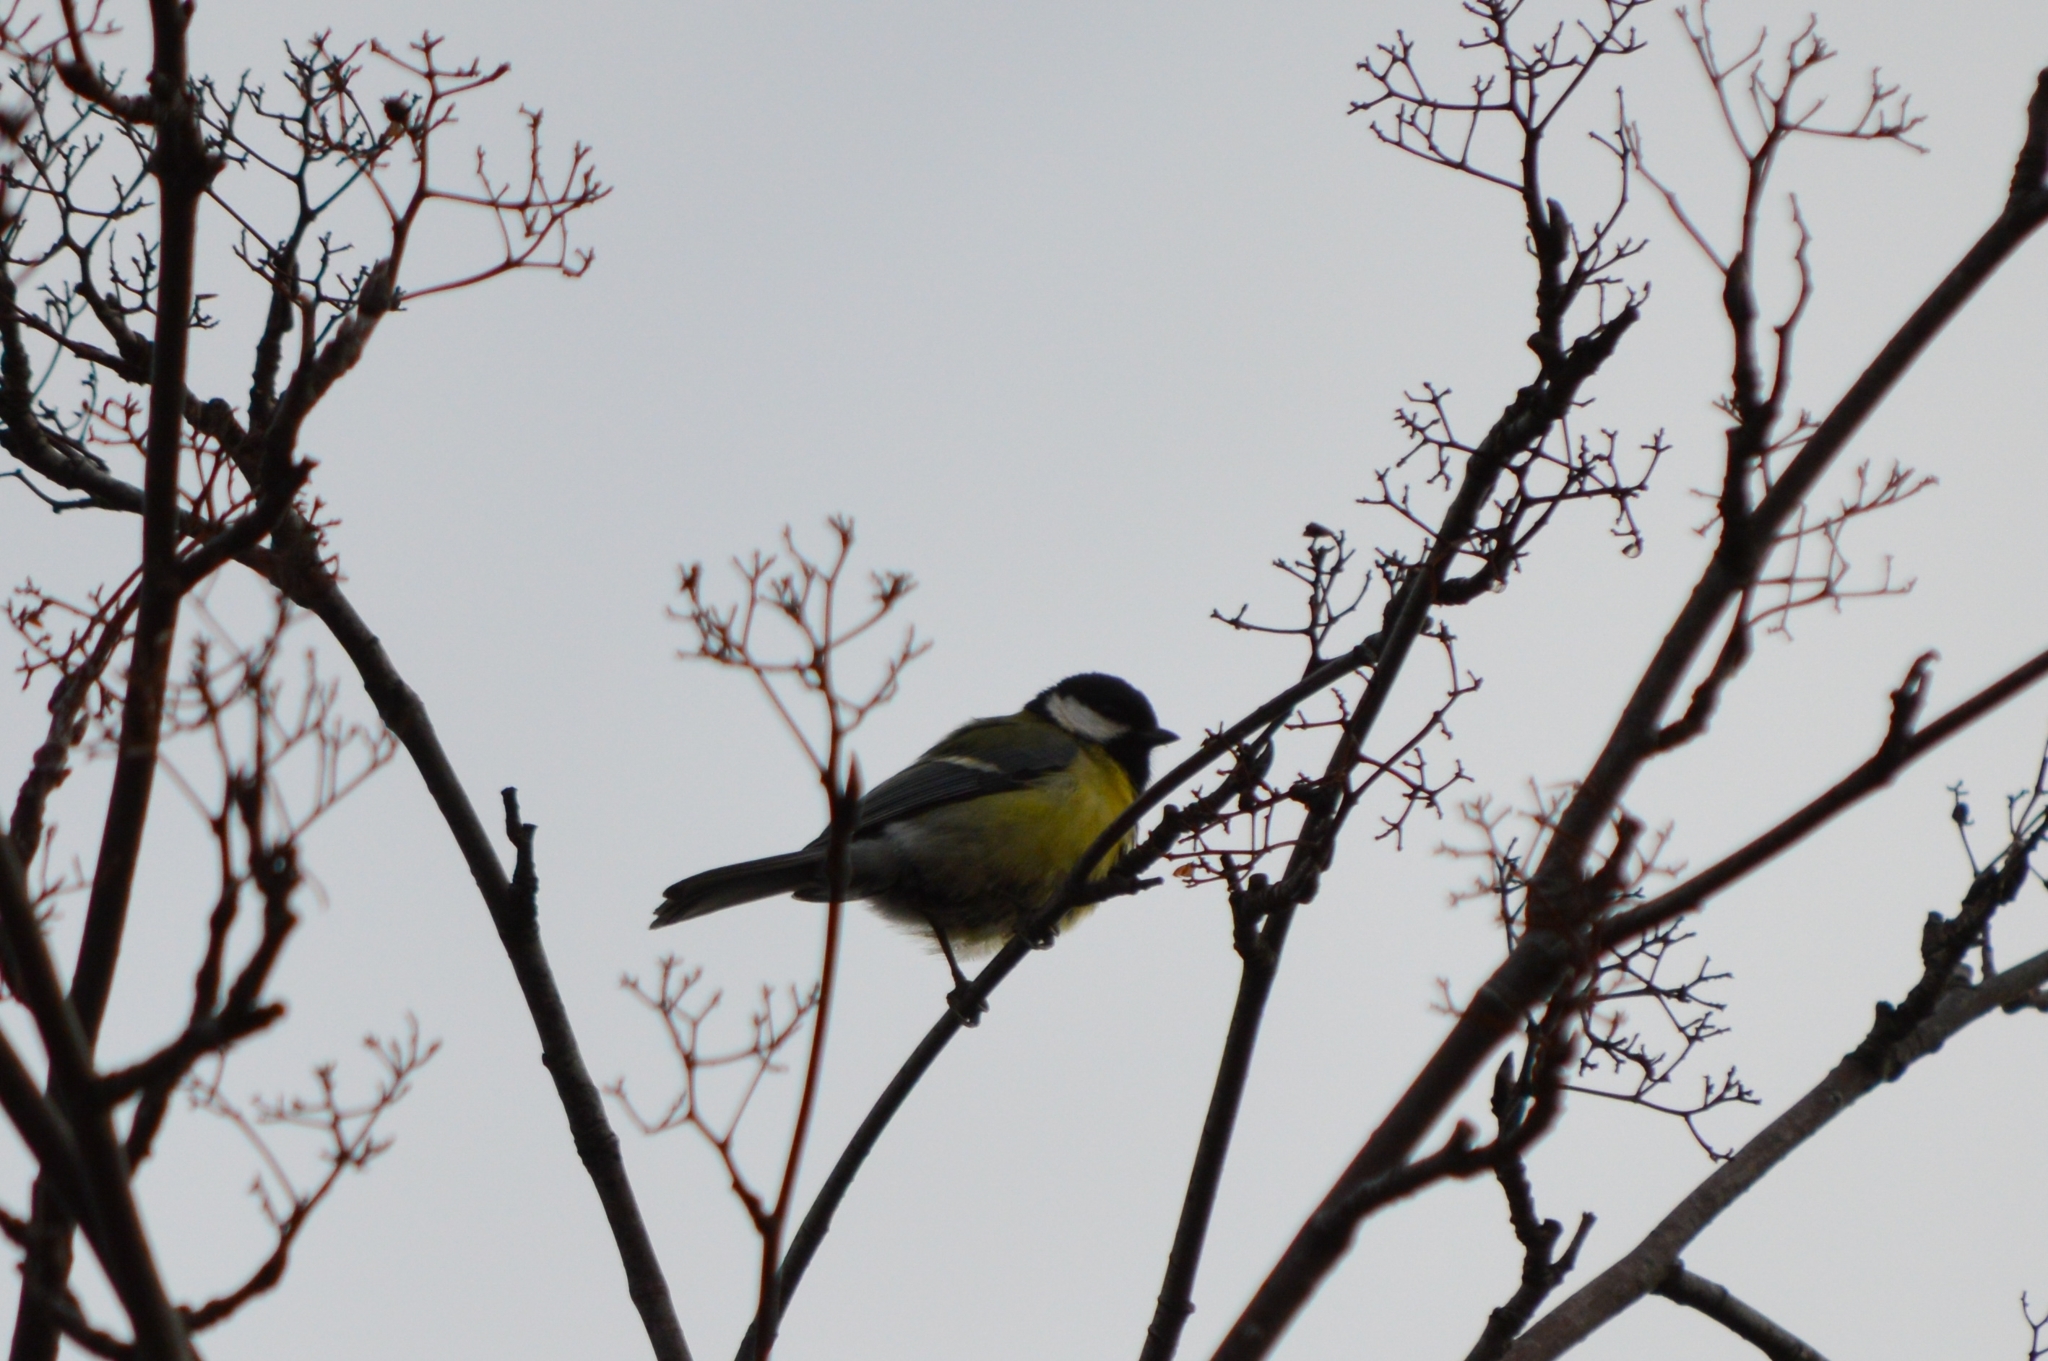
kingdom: Animalia
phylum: Chordata
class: Aves
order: Passeriformes
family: Paridae
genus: Parus
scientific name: Parus major
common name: Great tit
